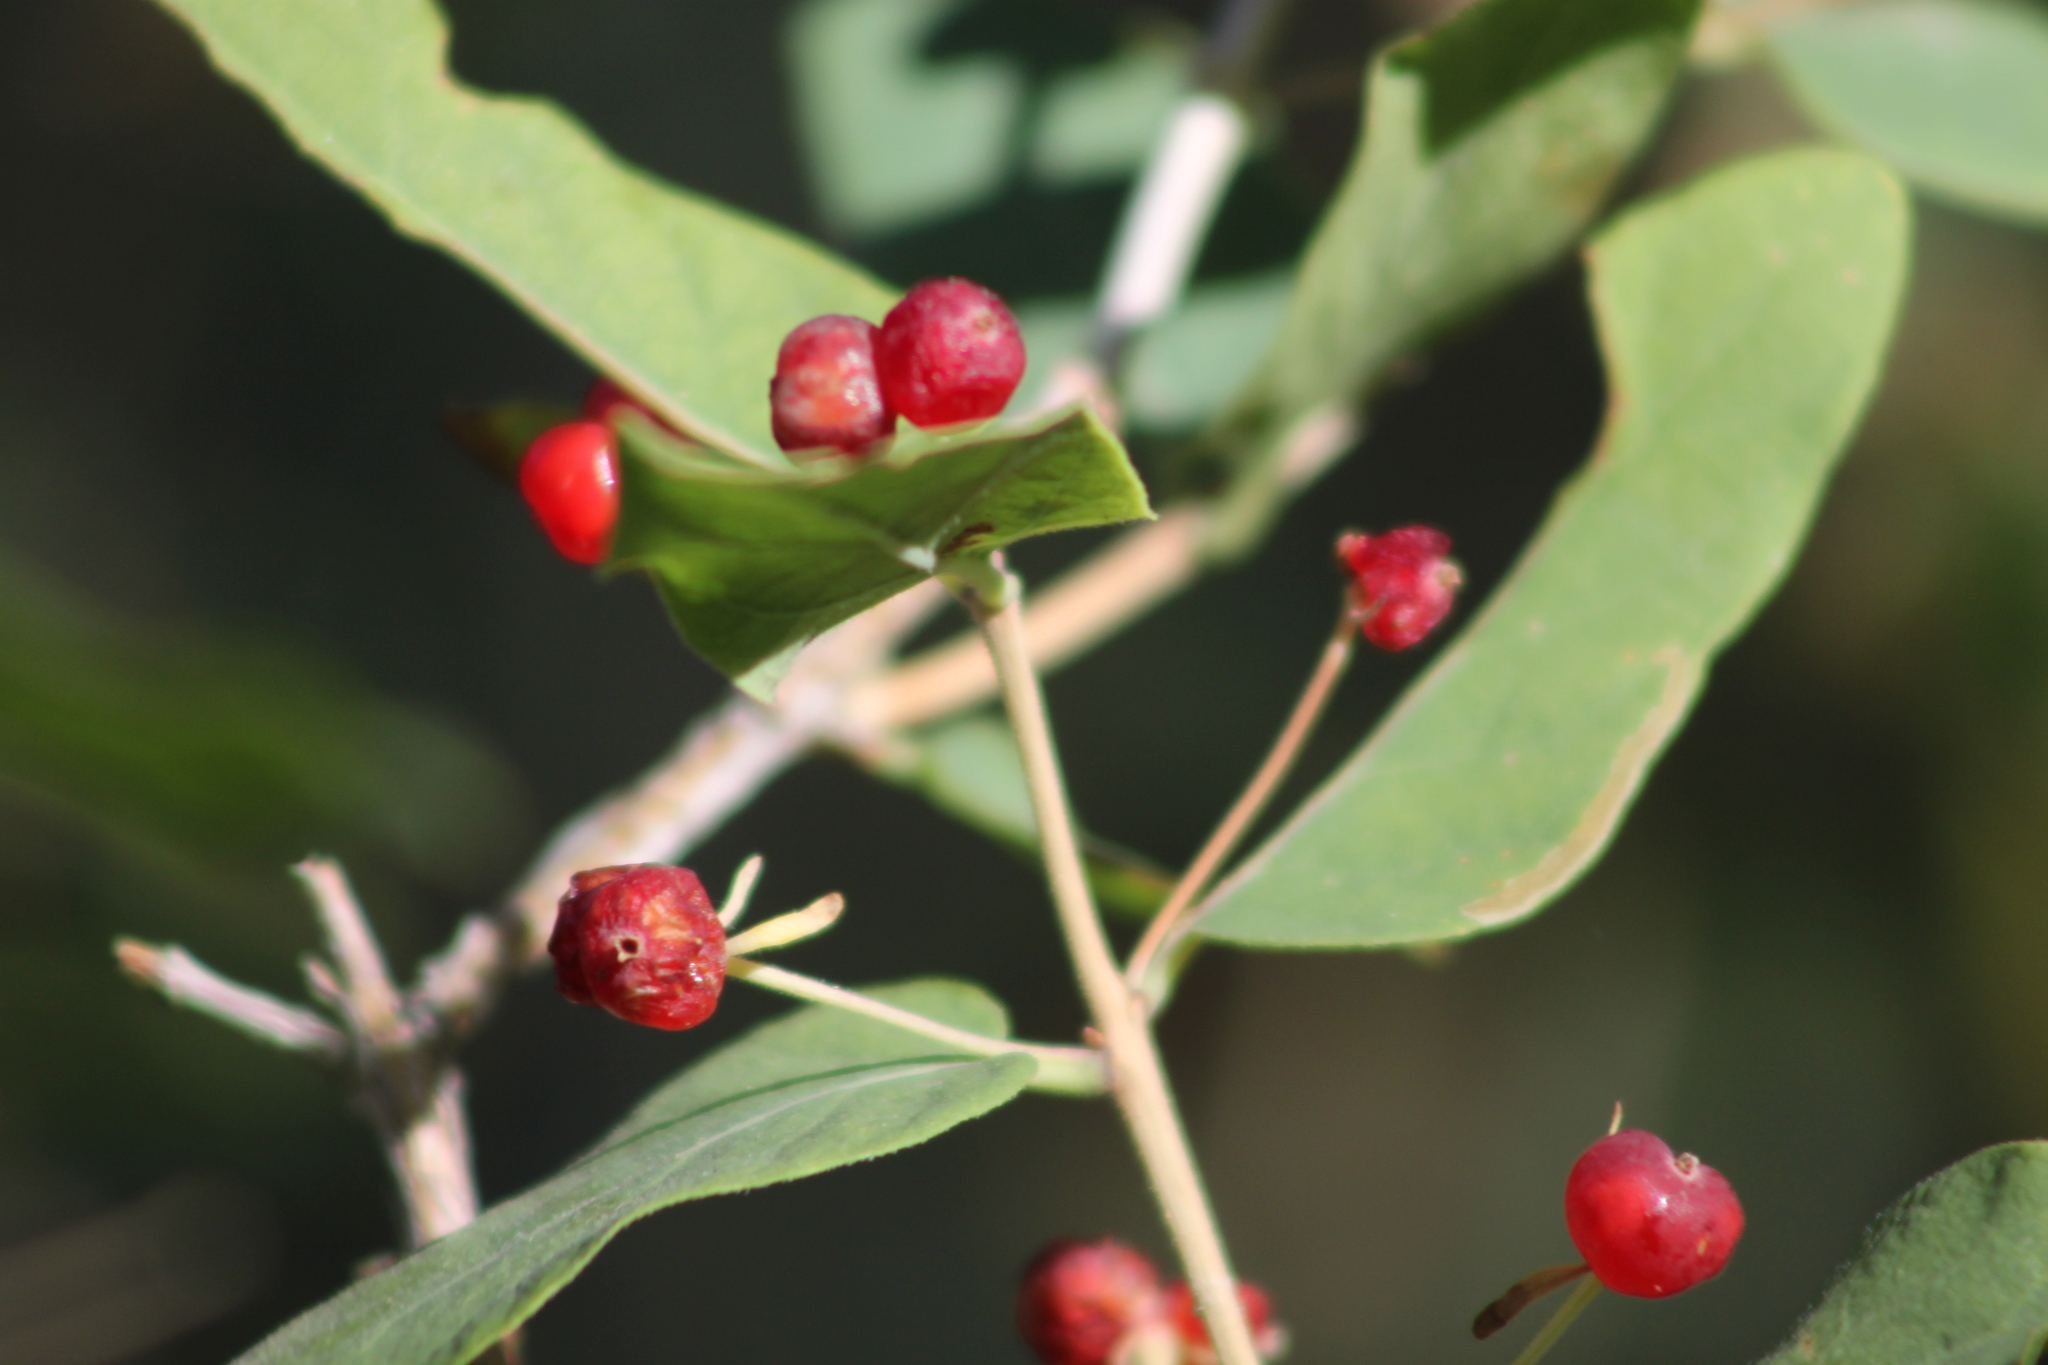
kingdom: Plantae
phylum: Tracheophyta
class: Magnoliopsida
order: Dipsacales
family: Caprifoliaceae
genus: Lonicera
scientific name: Lonicera tatarica
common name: Tatarian honeysuckle
